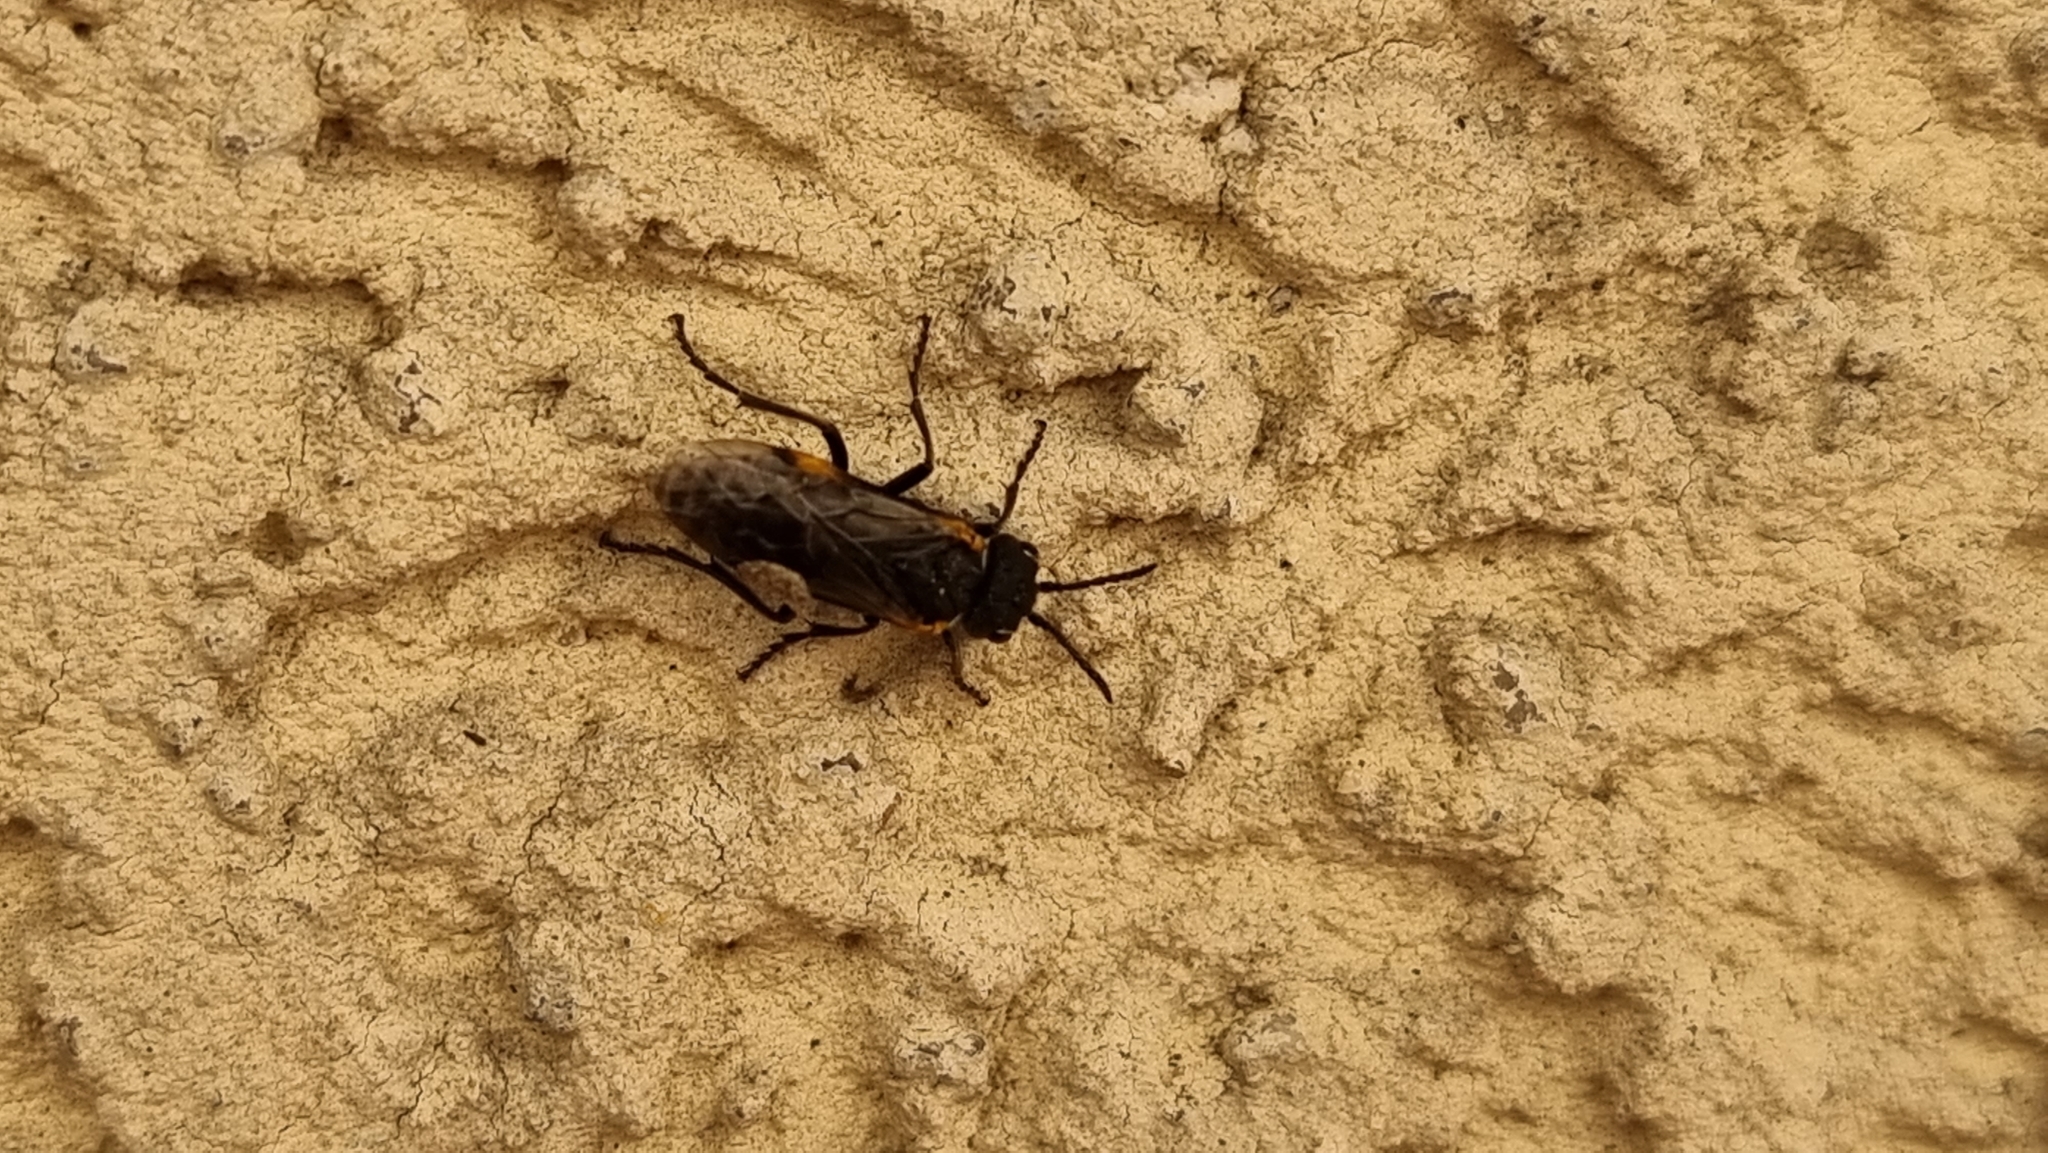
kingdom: Animalia
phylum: Arthropoda
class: Insecta
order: Hymenoptera
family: Tenthredinidae
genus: Sciapteryx
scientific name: Sciapteryx costalis
